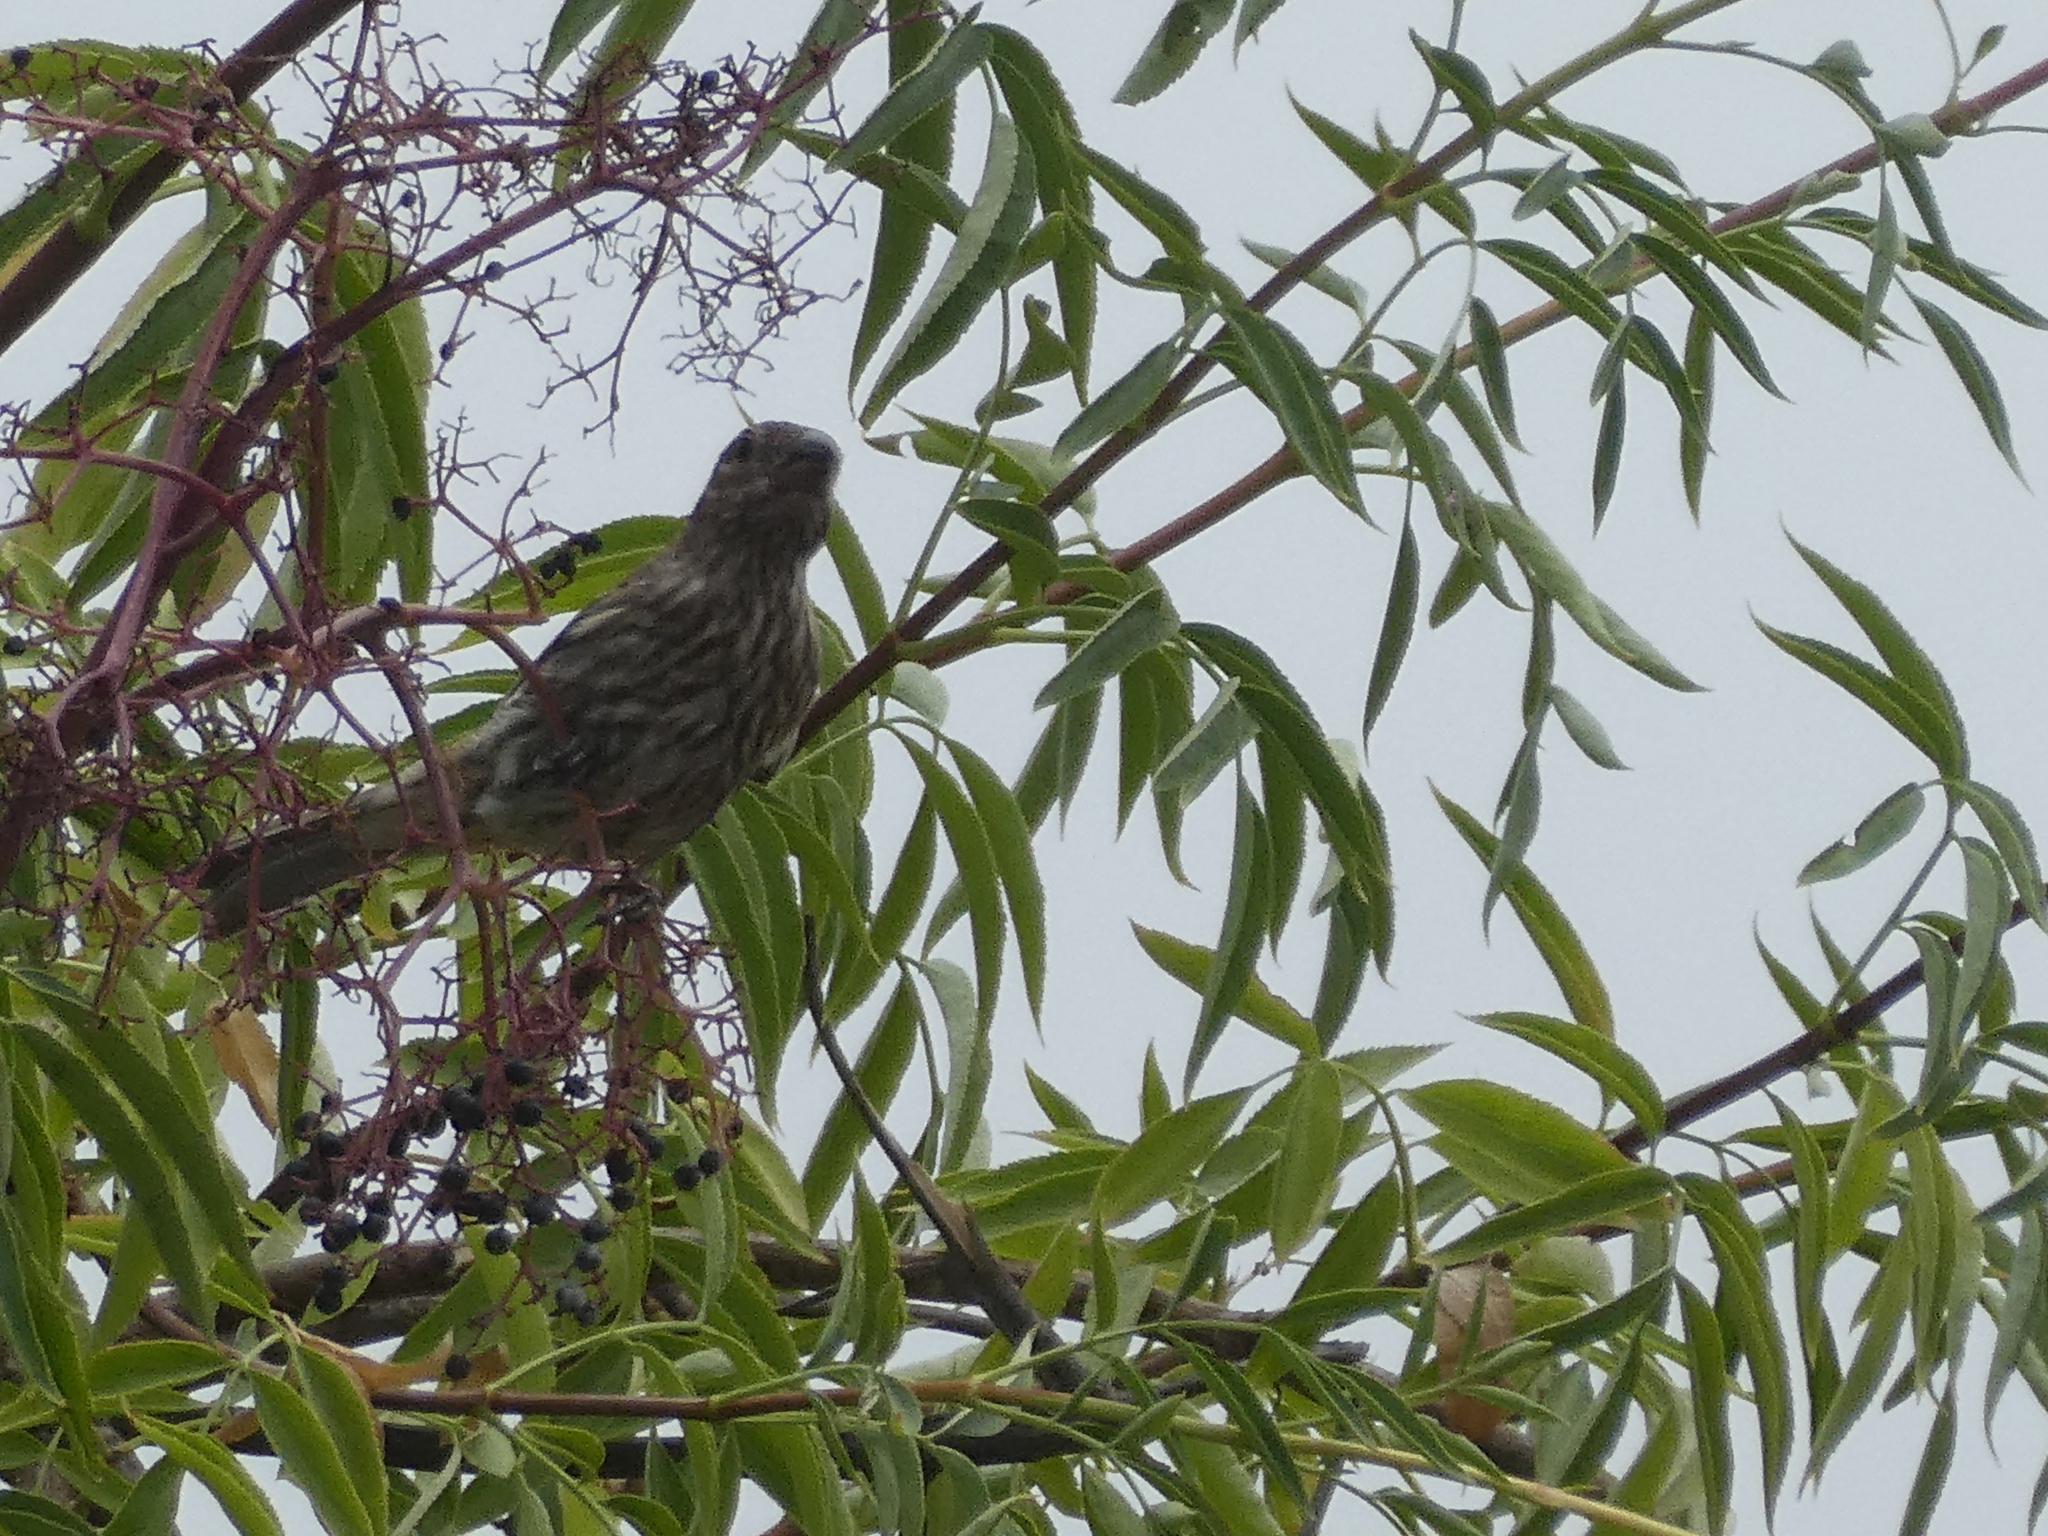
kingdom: Animalia
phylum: Chordata
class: Aves
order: Passeriformes
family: Fringillidae
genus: Haemorhous
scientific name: Haemorhous mexicanus
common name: House finch
